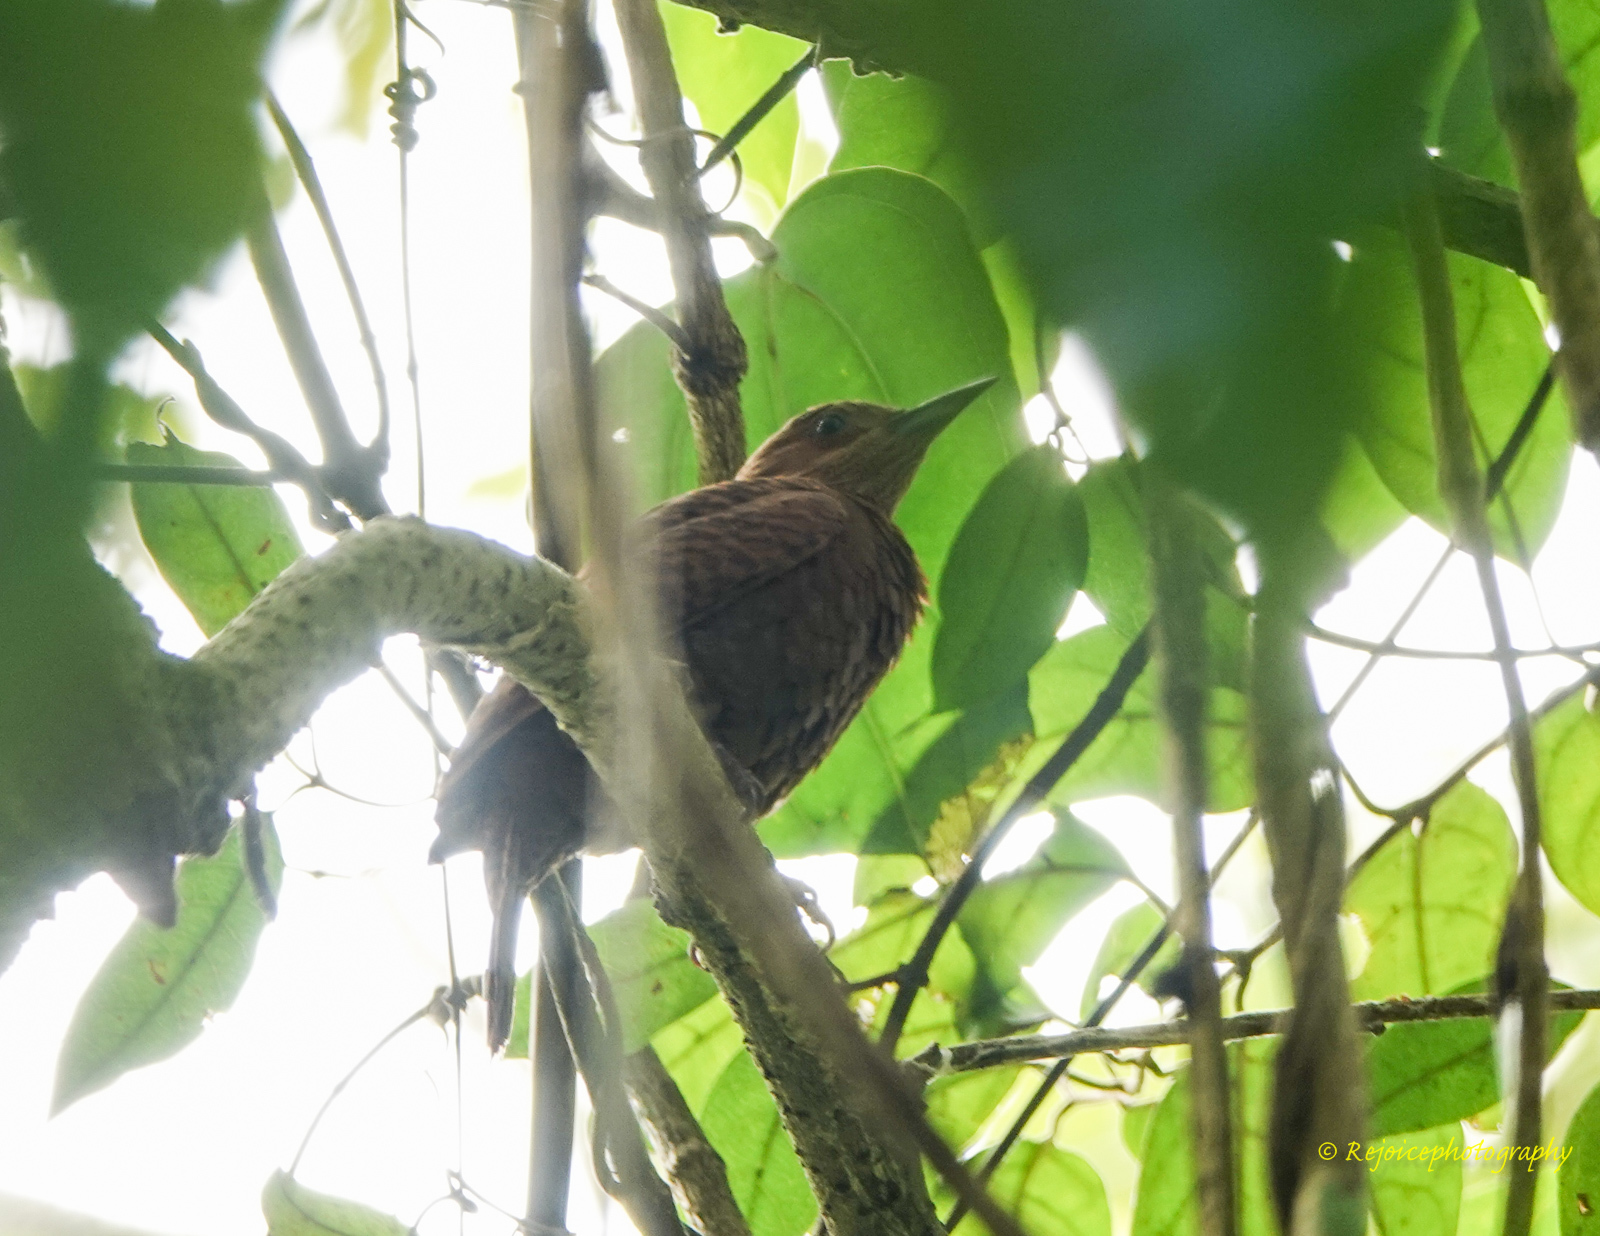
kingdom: Animalia
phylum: Chordata
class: Aves
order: Piciformes
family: Picidae
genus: Micropternus
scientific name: Micropternus brachyurus
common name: Rufous woodpecker
